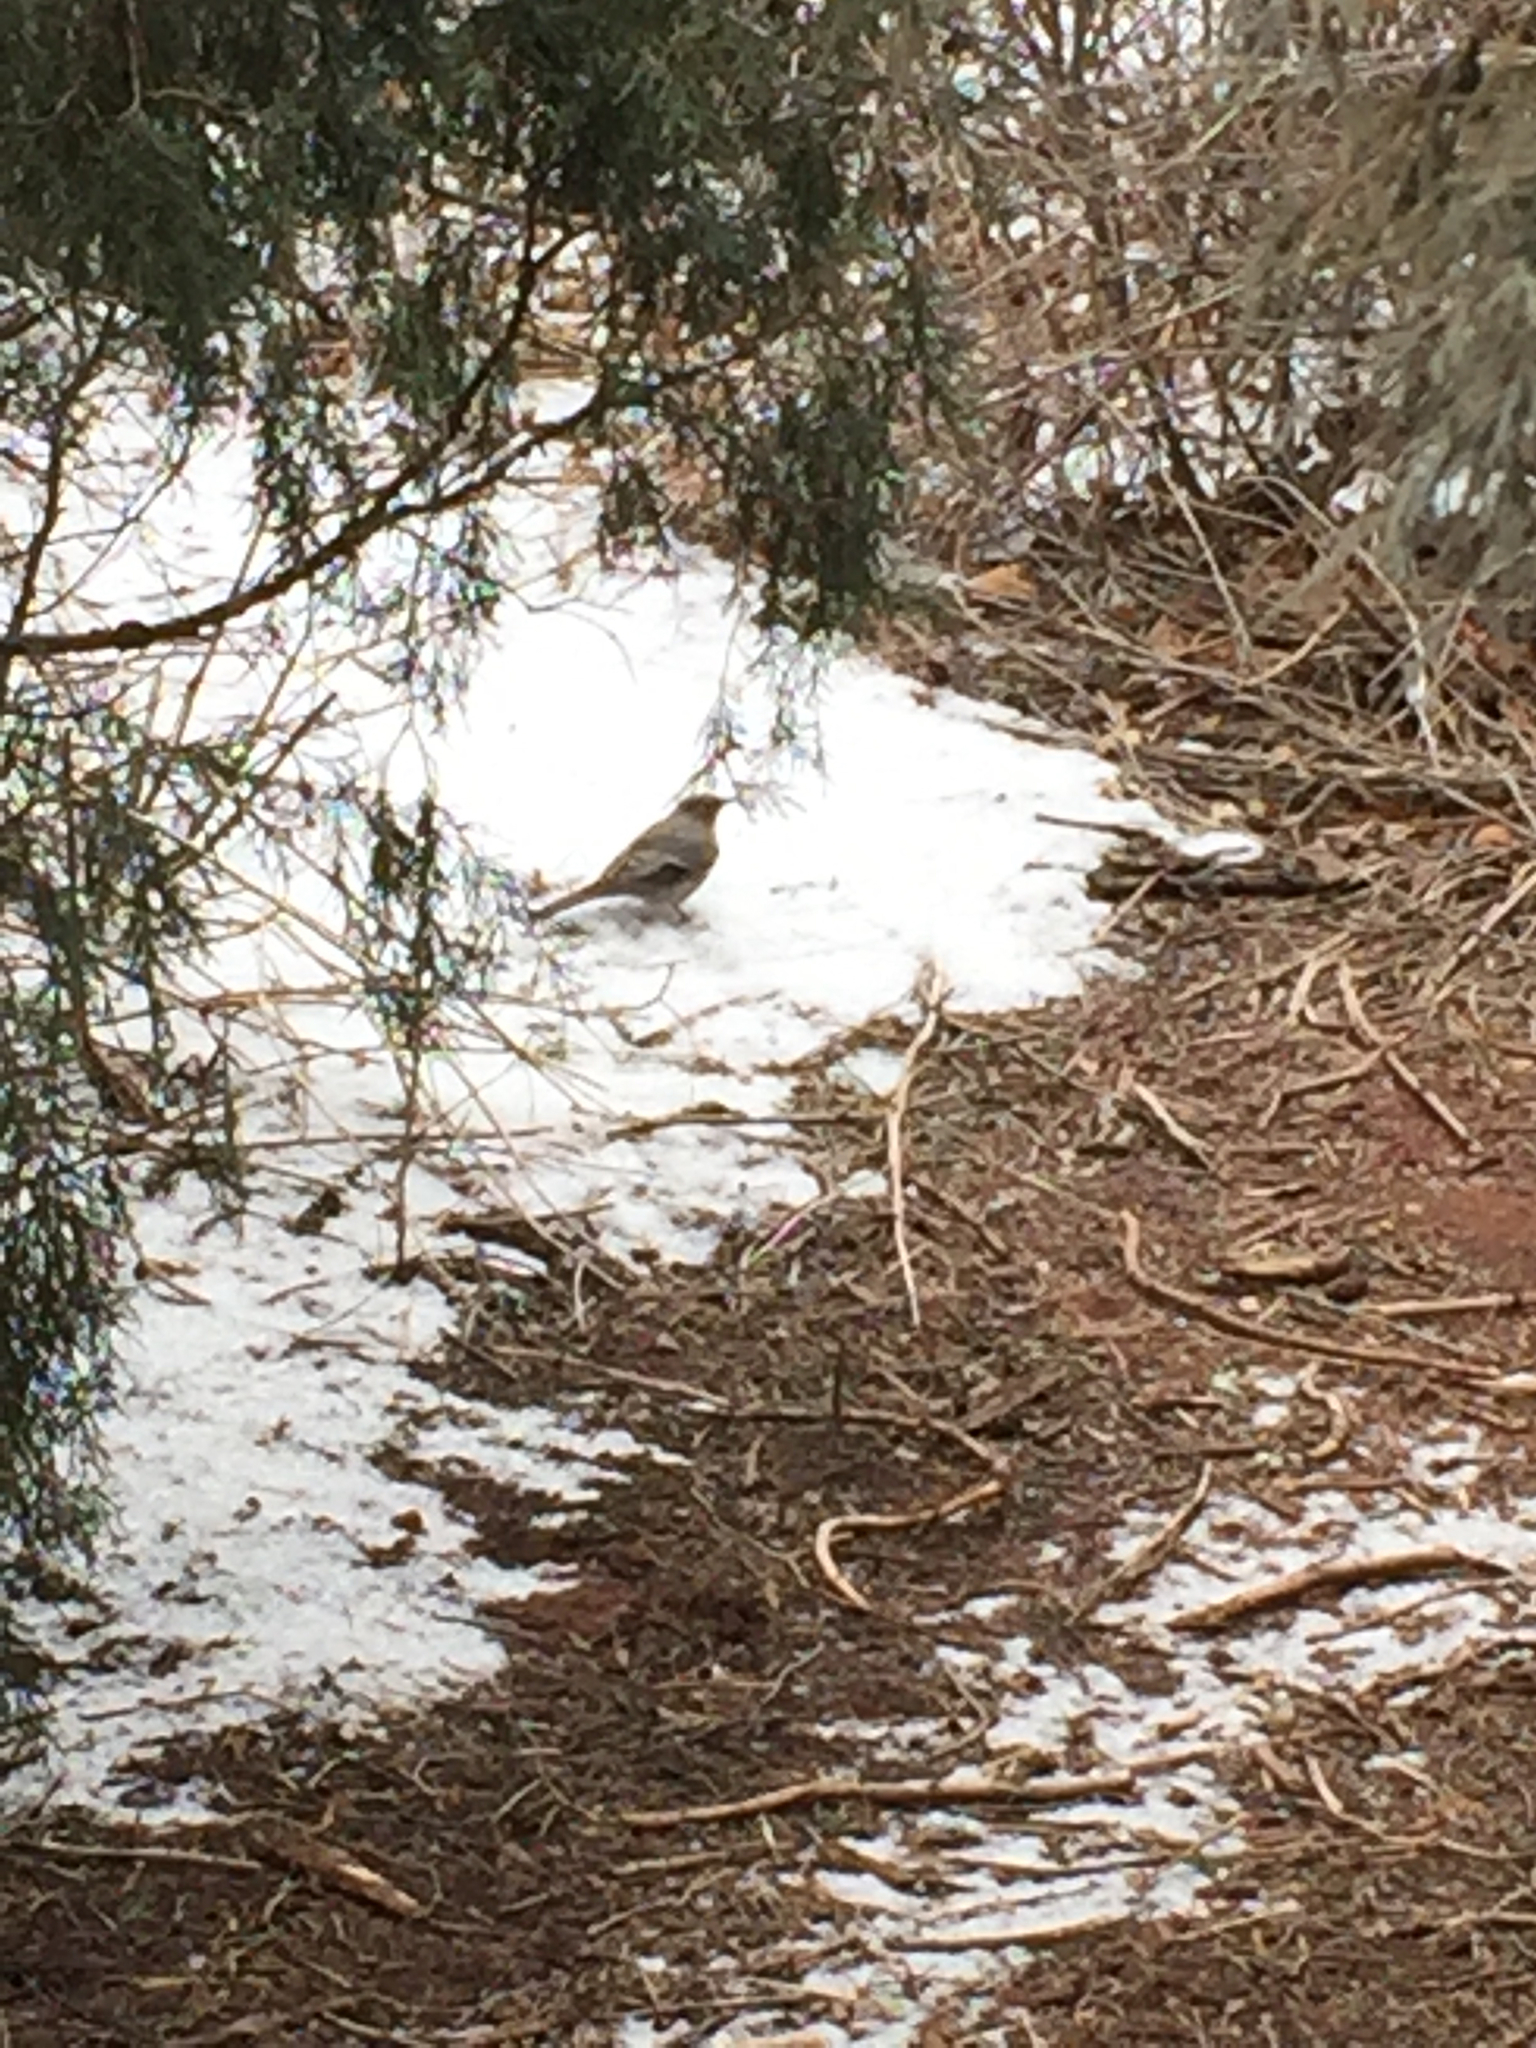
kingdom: Animalia
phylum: Chordata
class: Aves
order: Passeriformes
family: Turdidae
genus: Myadestes
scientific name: Myadestes townsendi
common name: Townsend's solitaire
